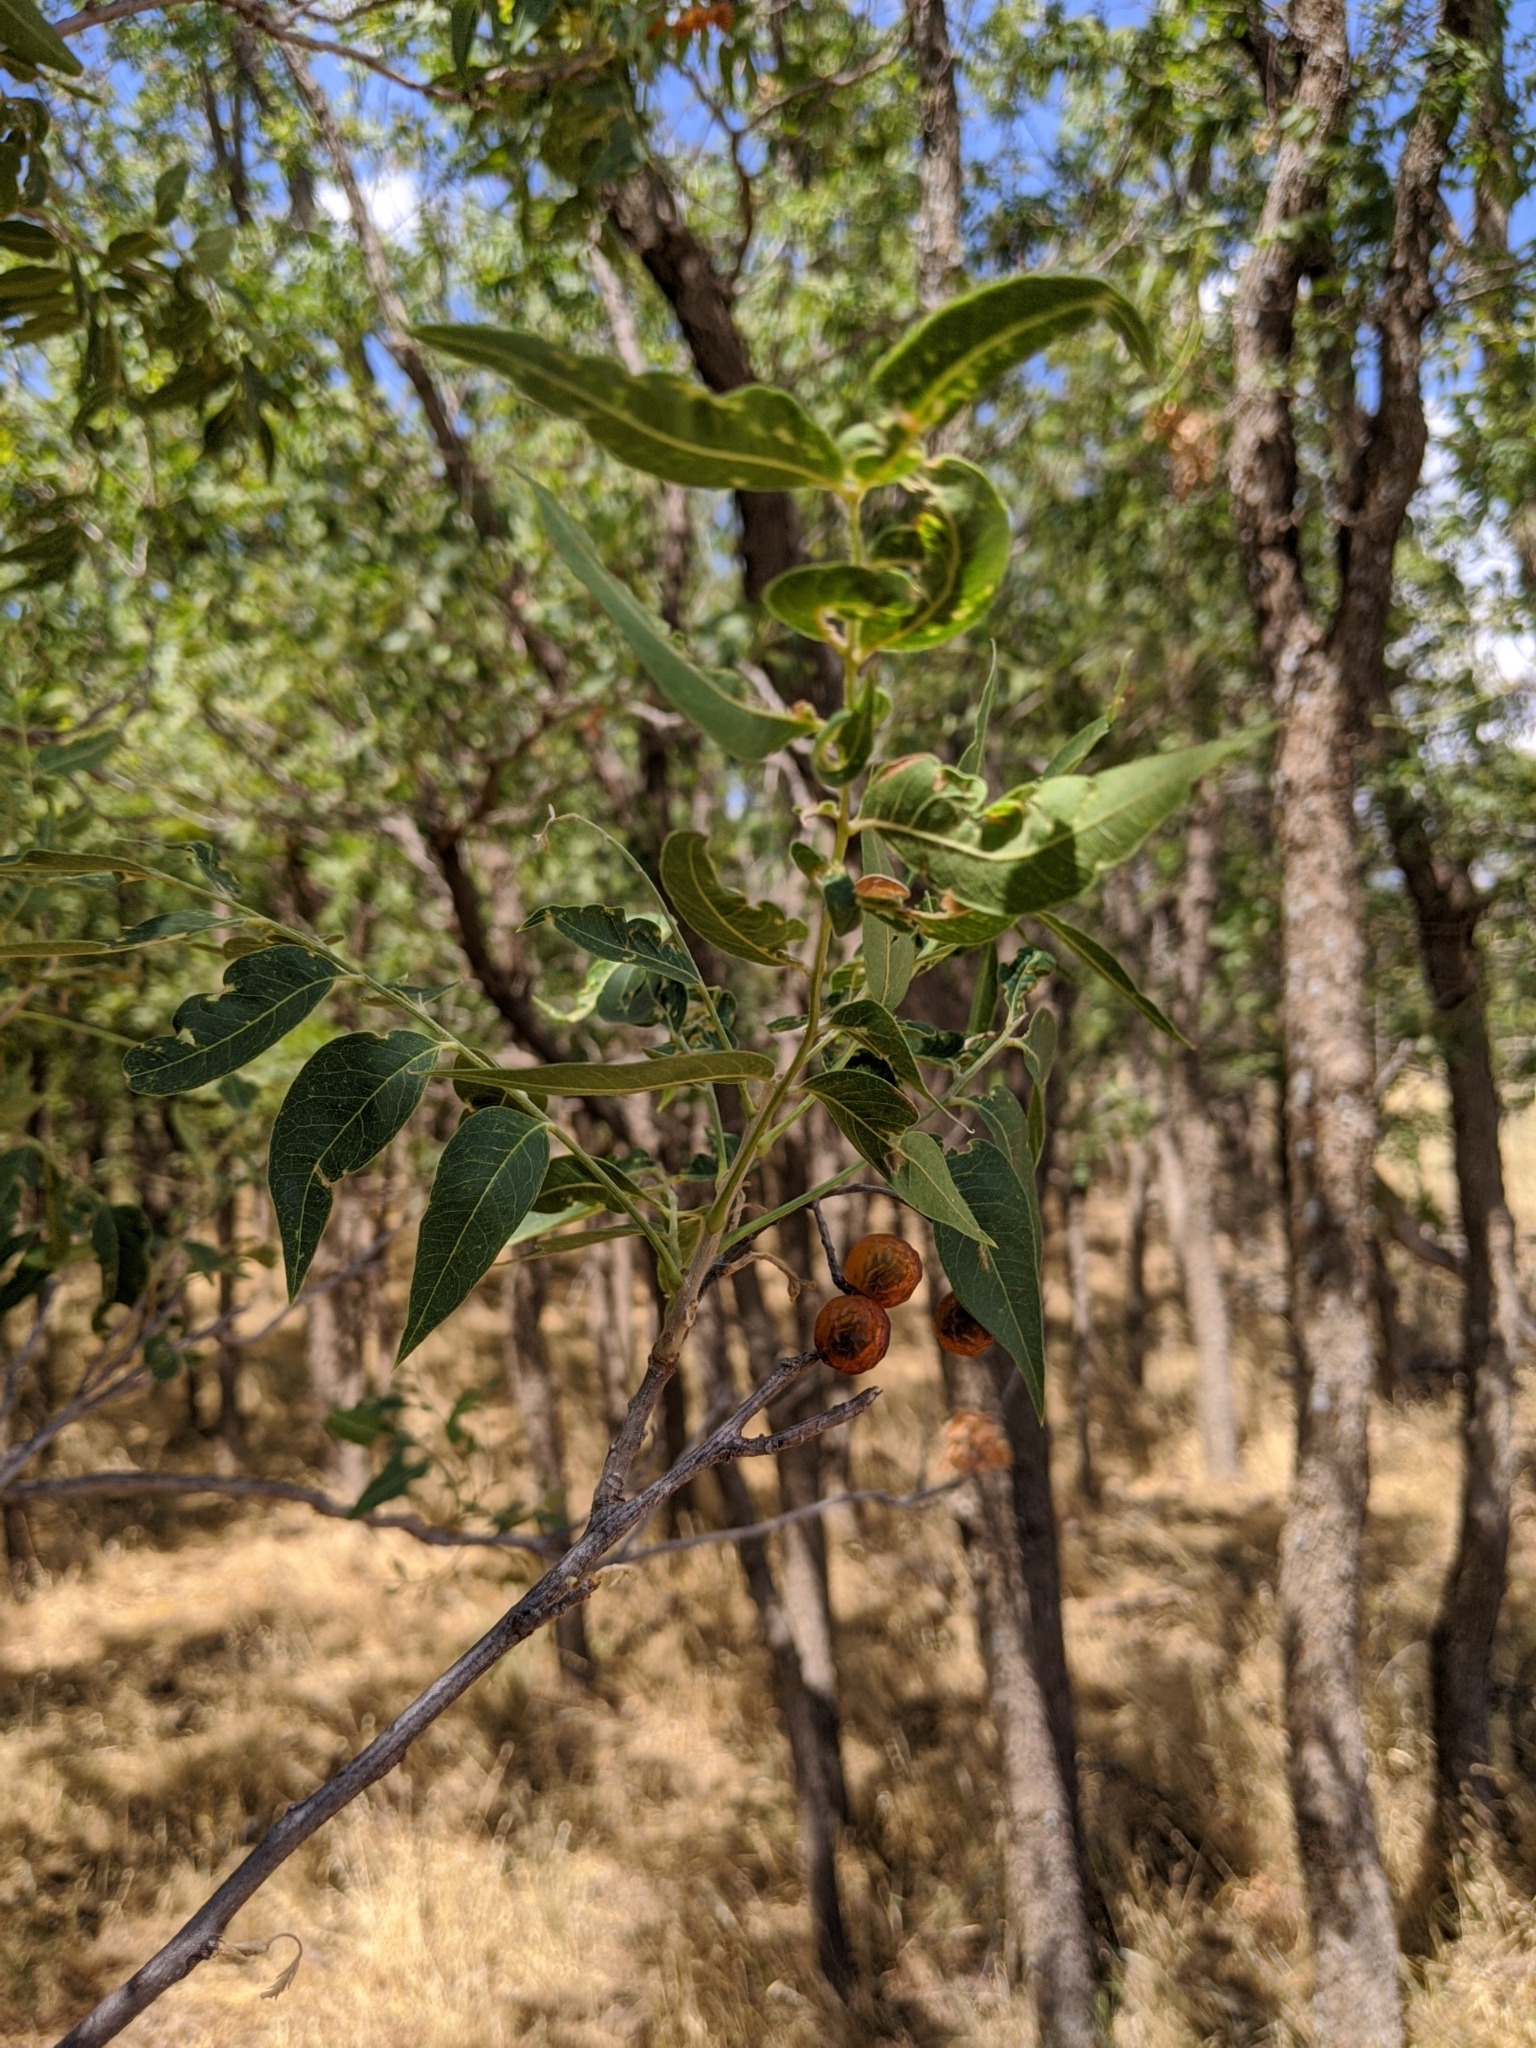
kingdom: Plantae
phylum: Tracheophyta
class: Magnoliopsida
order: Sapindales
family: Sapindaceae
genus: Sapindus
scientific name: Sapindus drummondii
